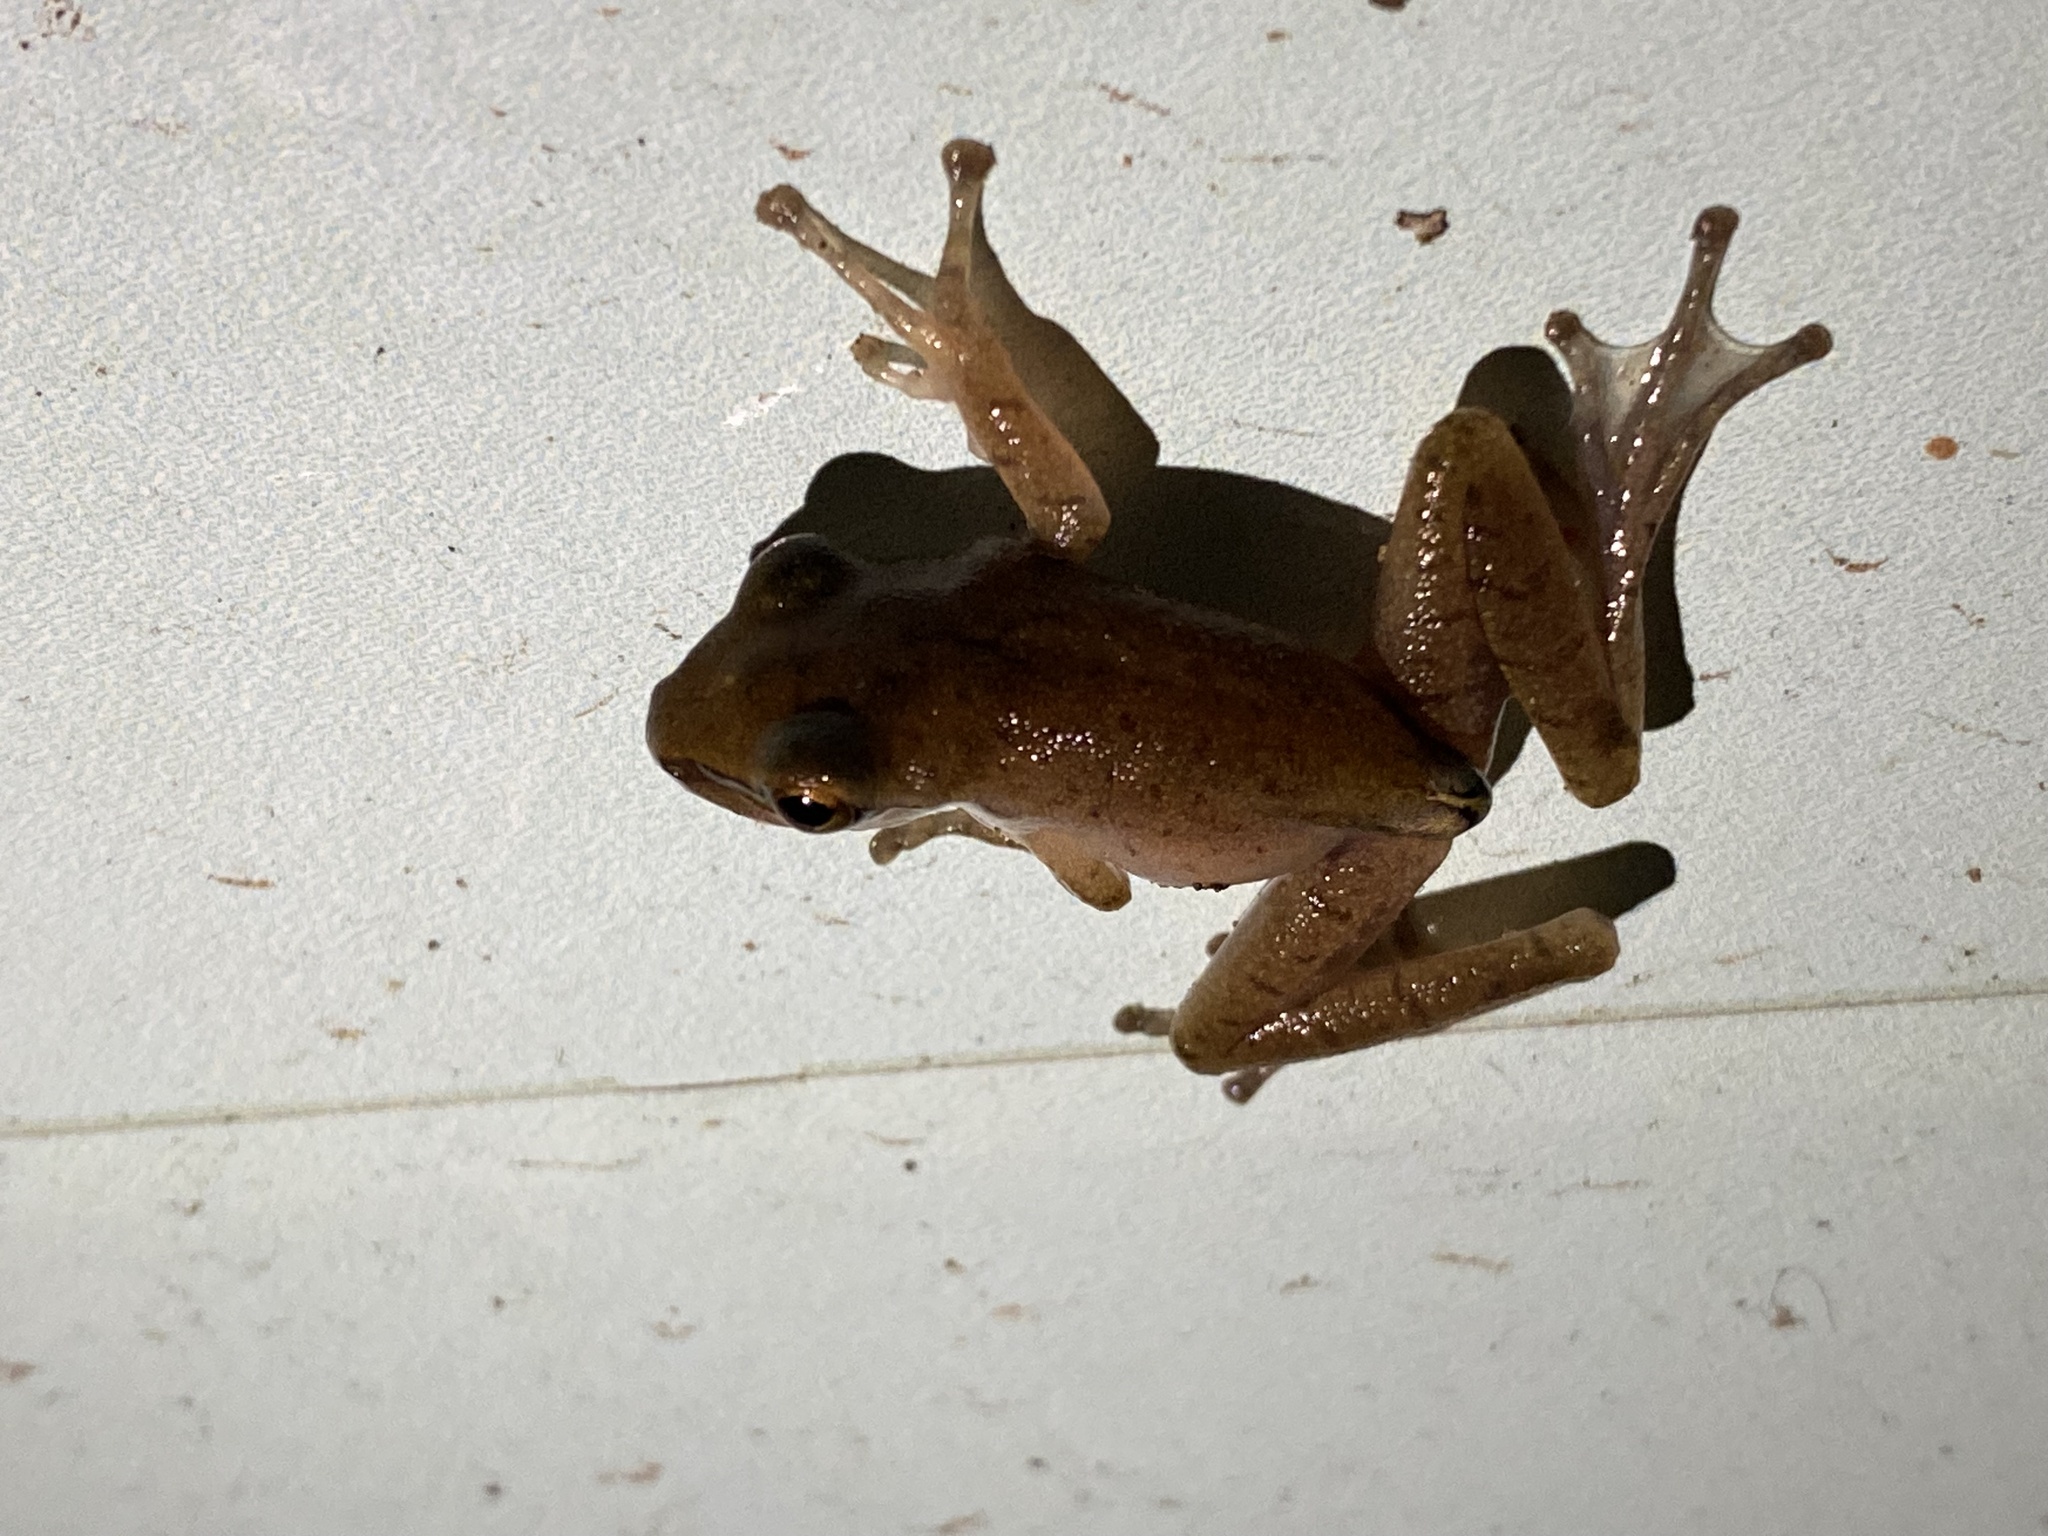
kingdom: Animalia
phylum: Chordata
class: Amphibia
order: Anura
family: Rhacophoridae
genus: Polypedates
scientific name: Polypedates megacephalus
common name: Hong kong whipping frog
